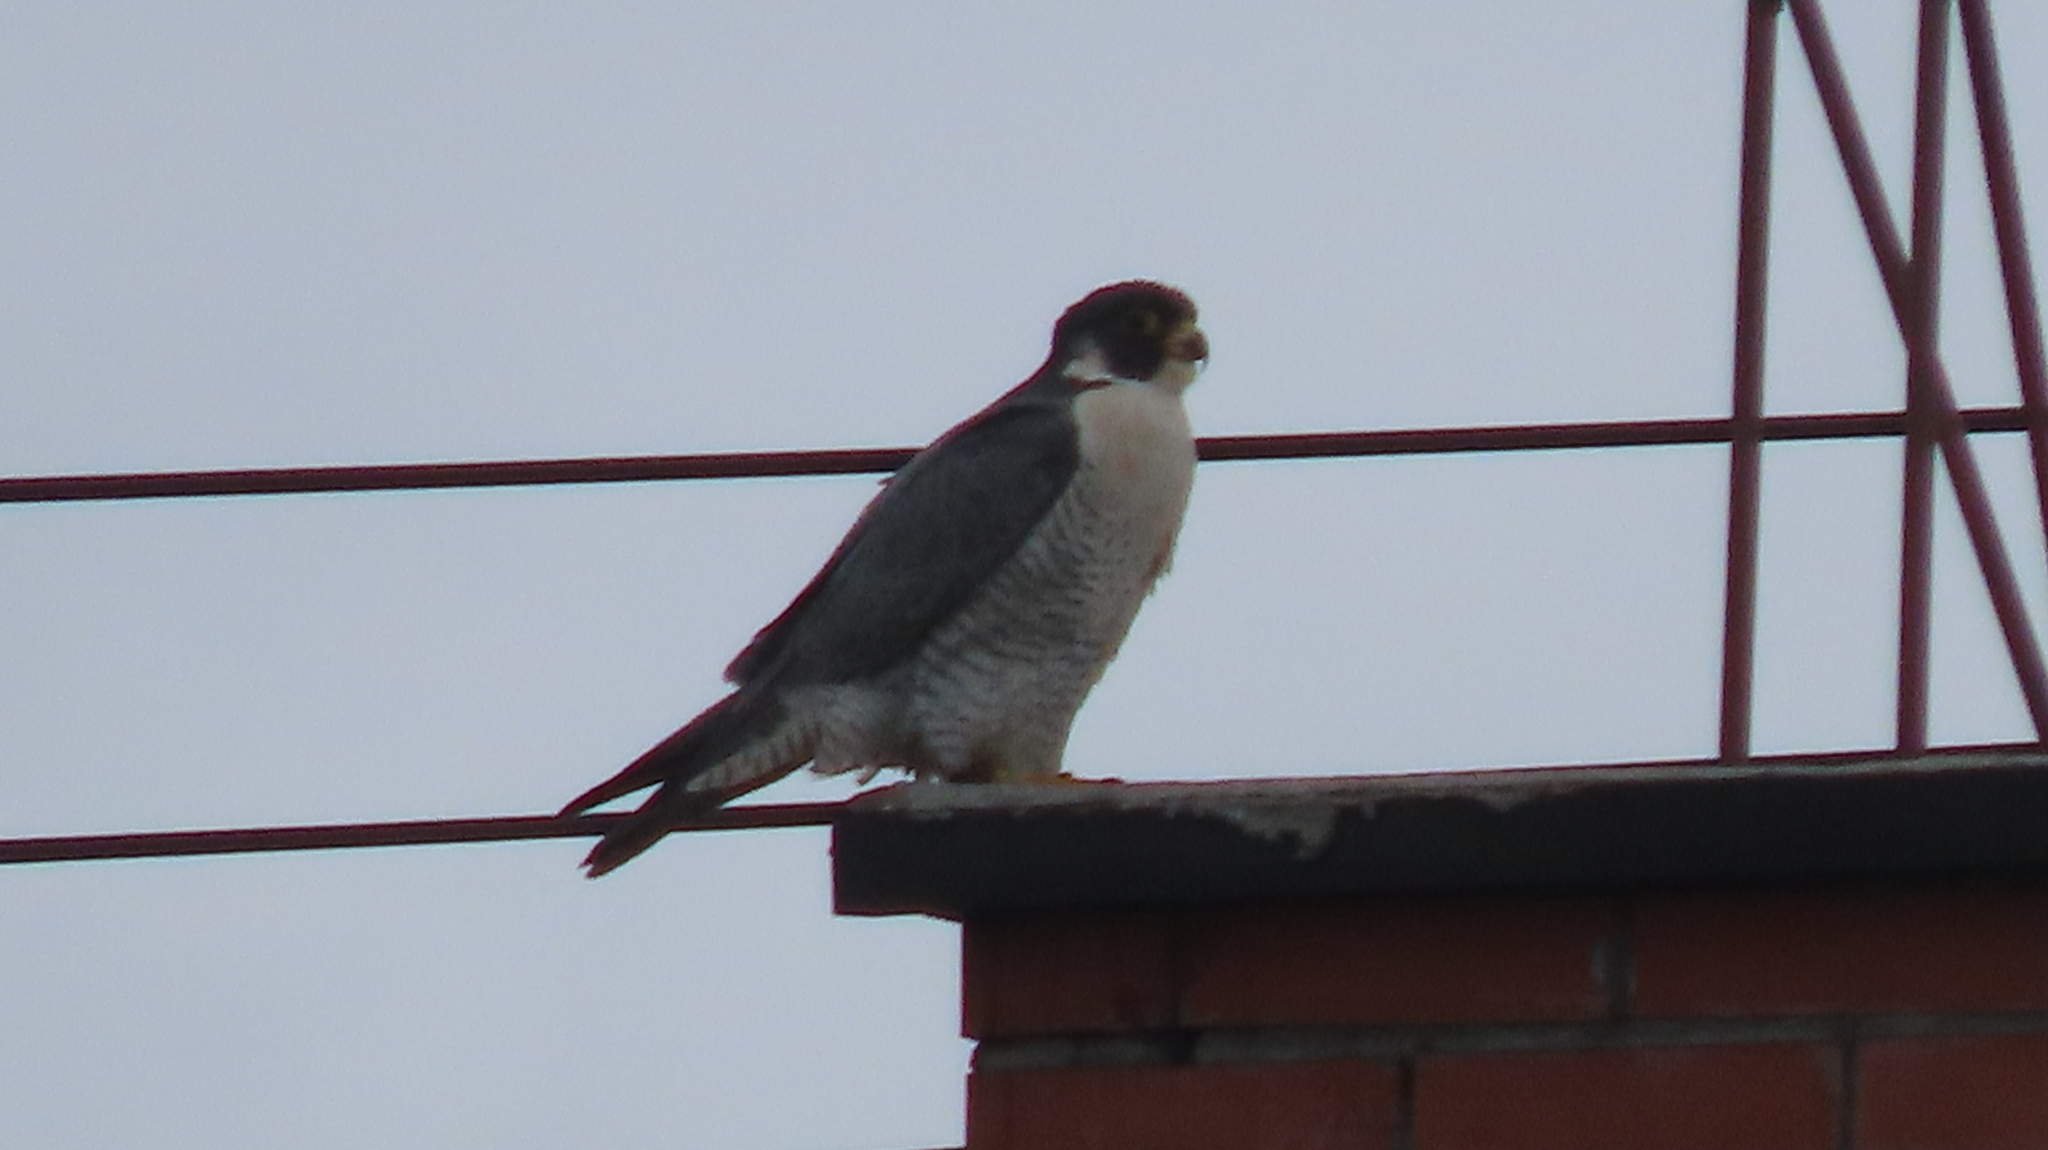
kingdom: Animalia
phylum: Chordata
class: Aves
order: Falconiformes
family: Falconidae
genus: Falco
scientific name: Falco peregrinus
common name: Peregrine falcon
